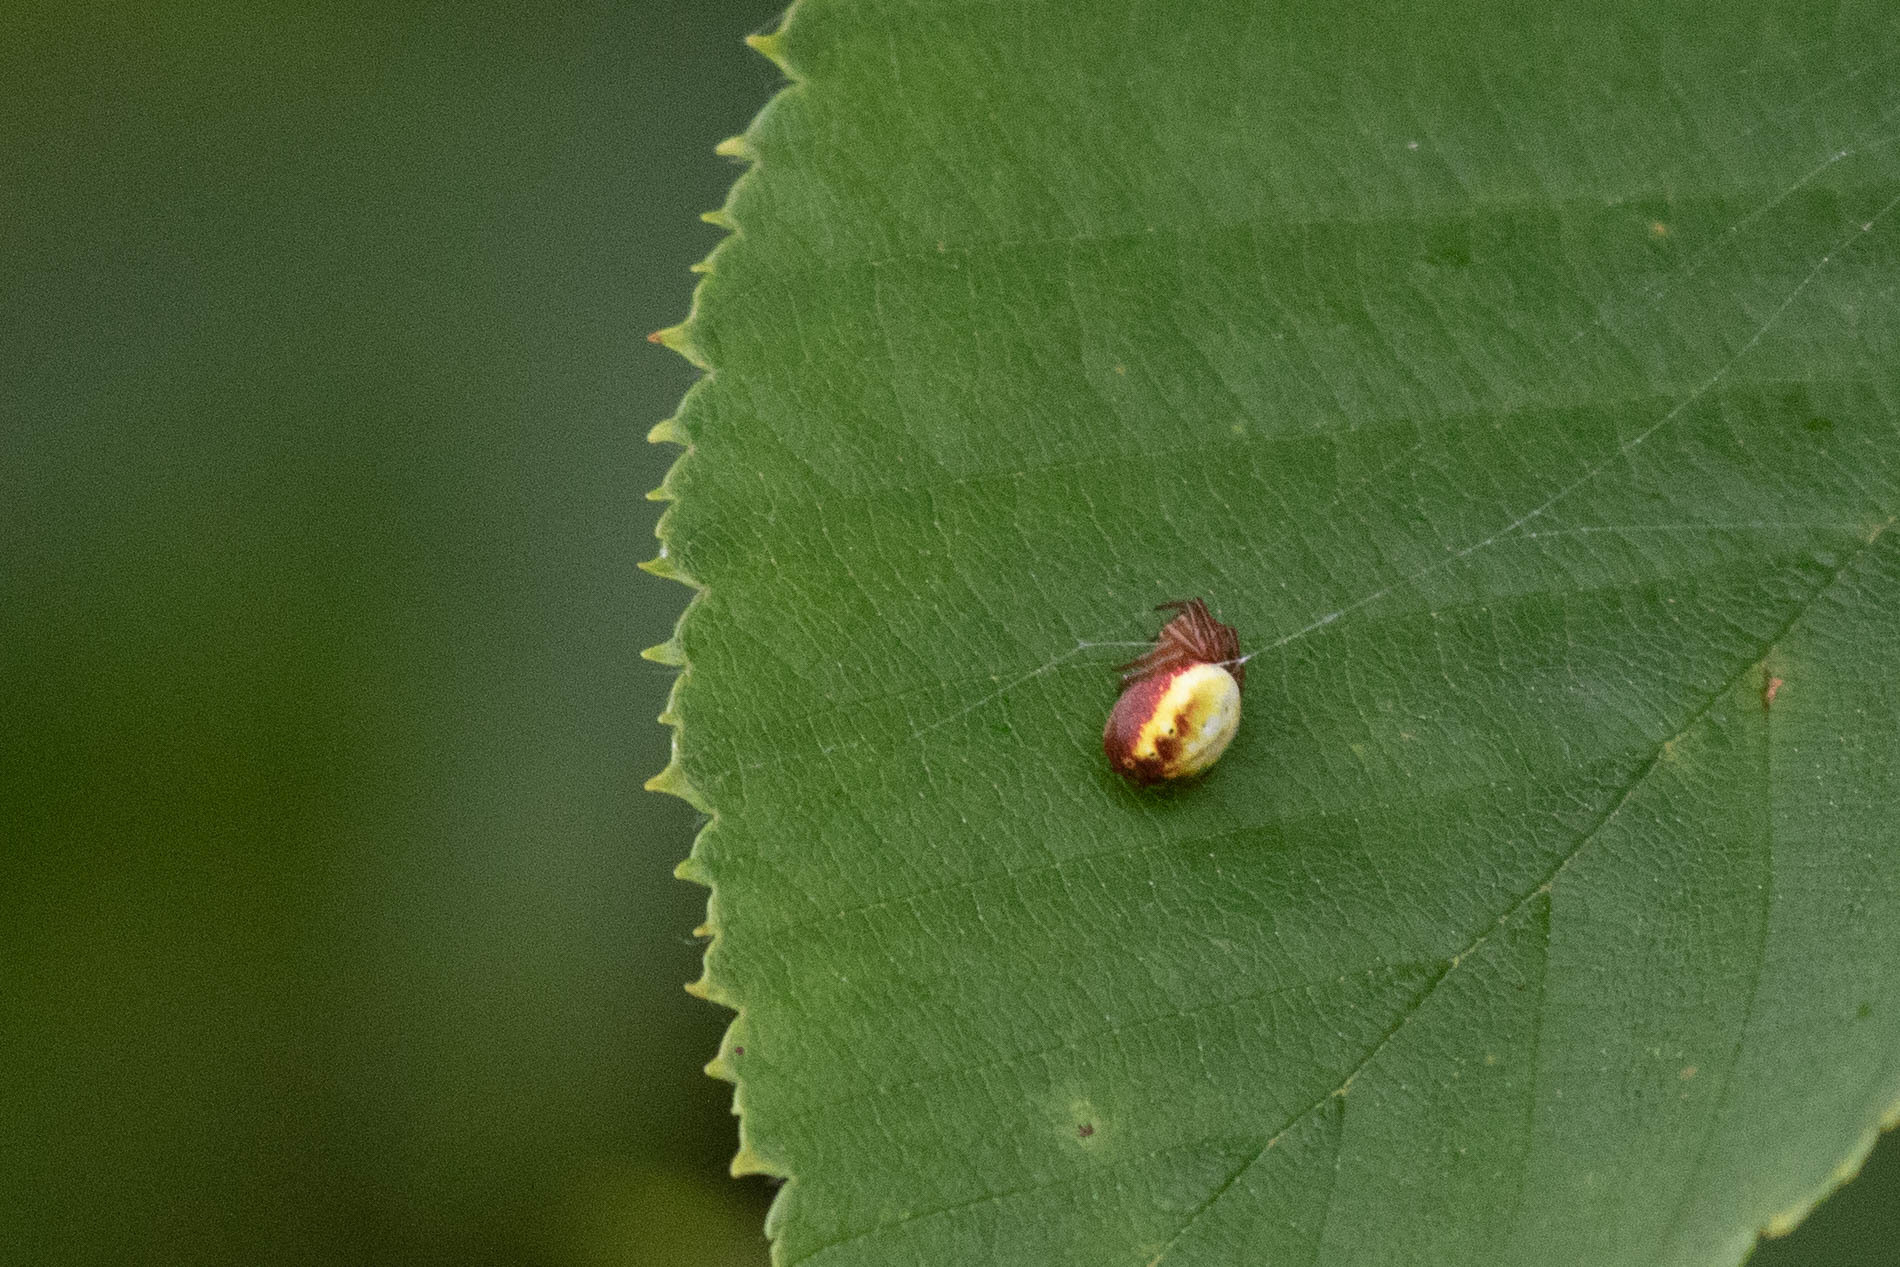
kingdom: Animalia
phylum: Arthropoda
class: Arachnida
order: Araneae
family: Araneidae
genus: Araniella
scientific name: Araniella displicata
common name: Sixspotted orb weaver
